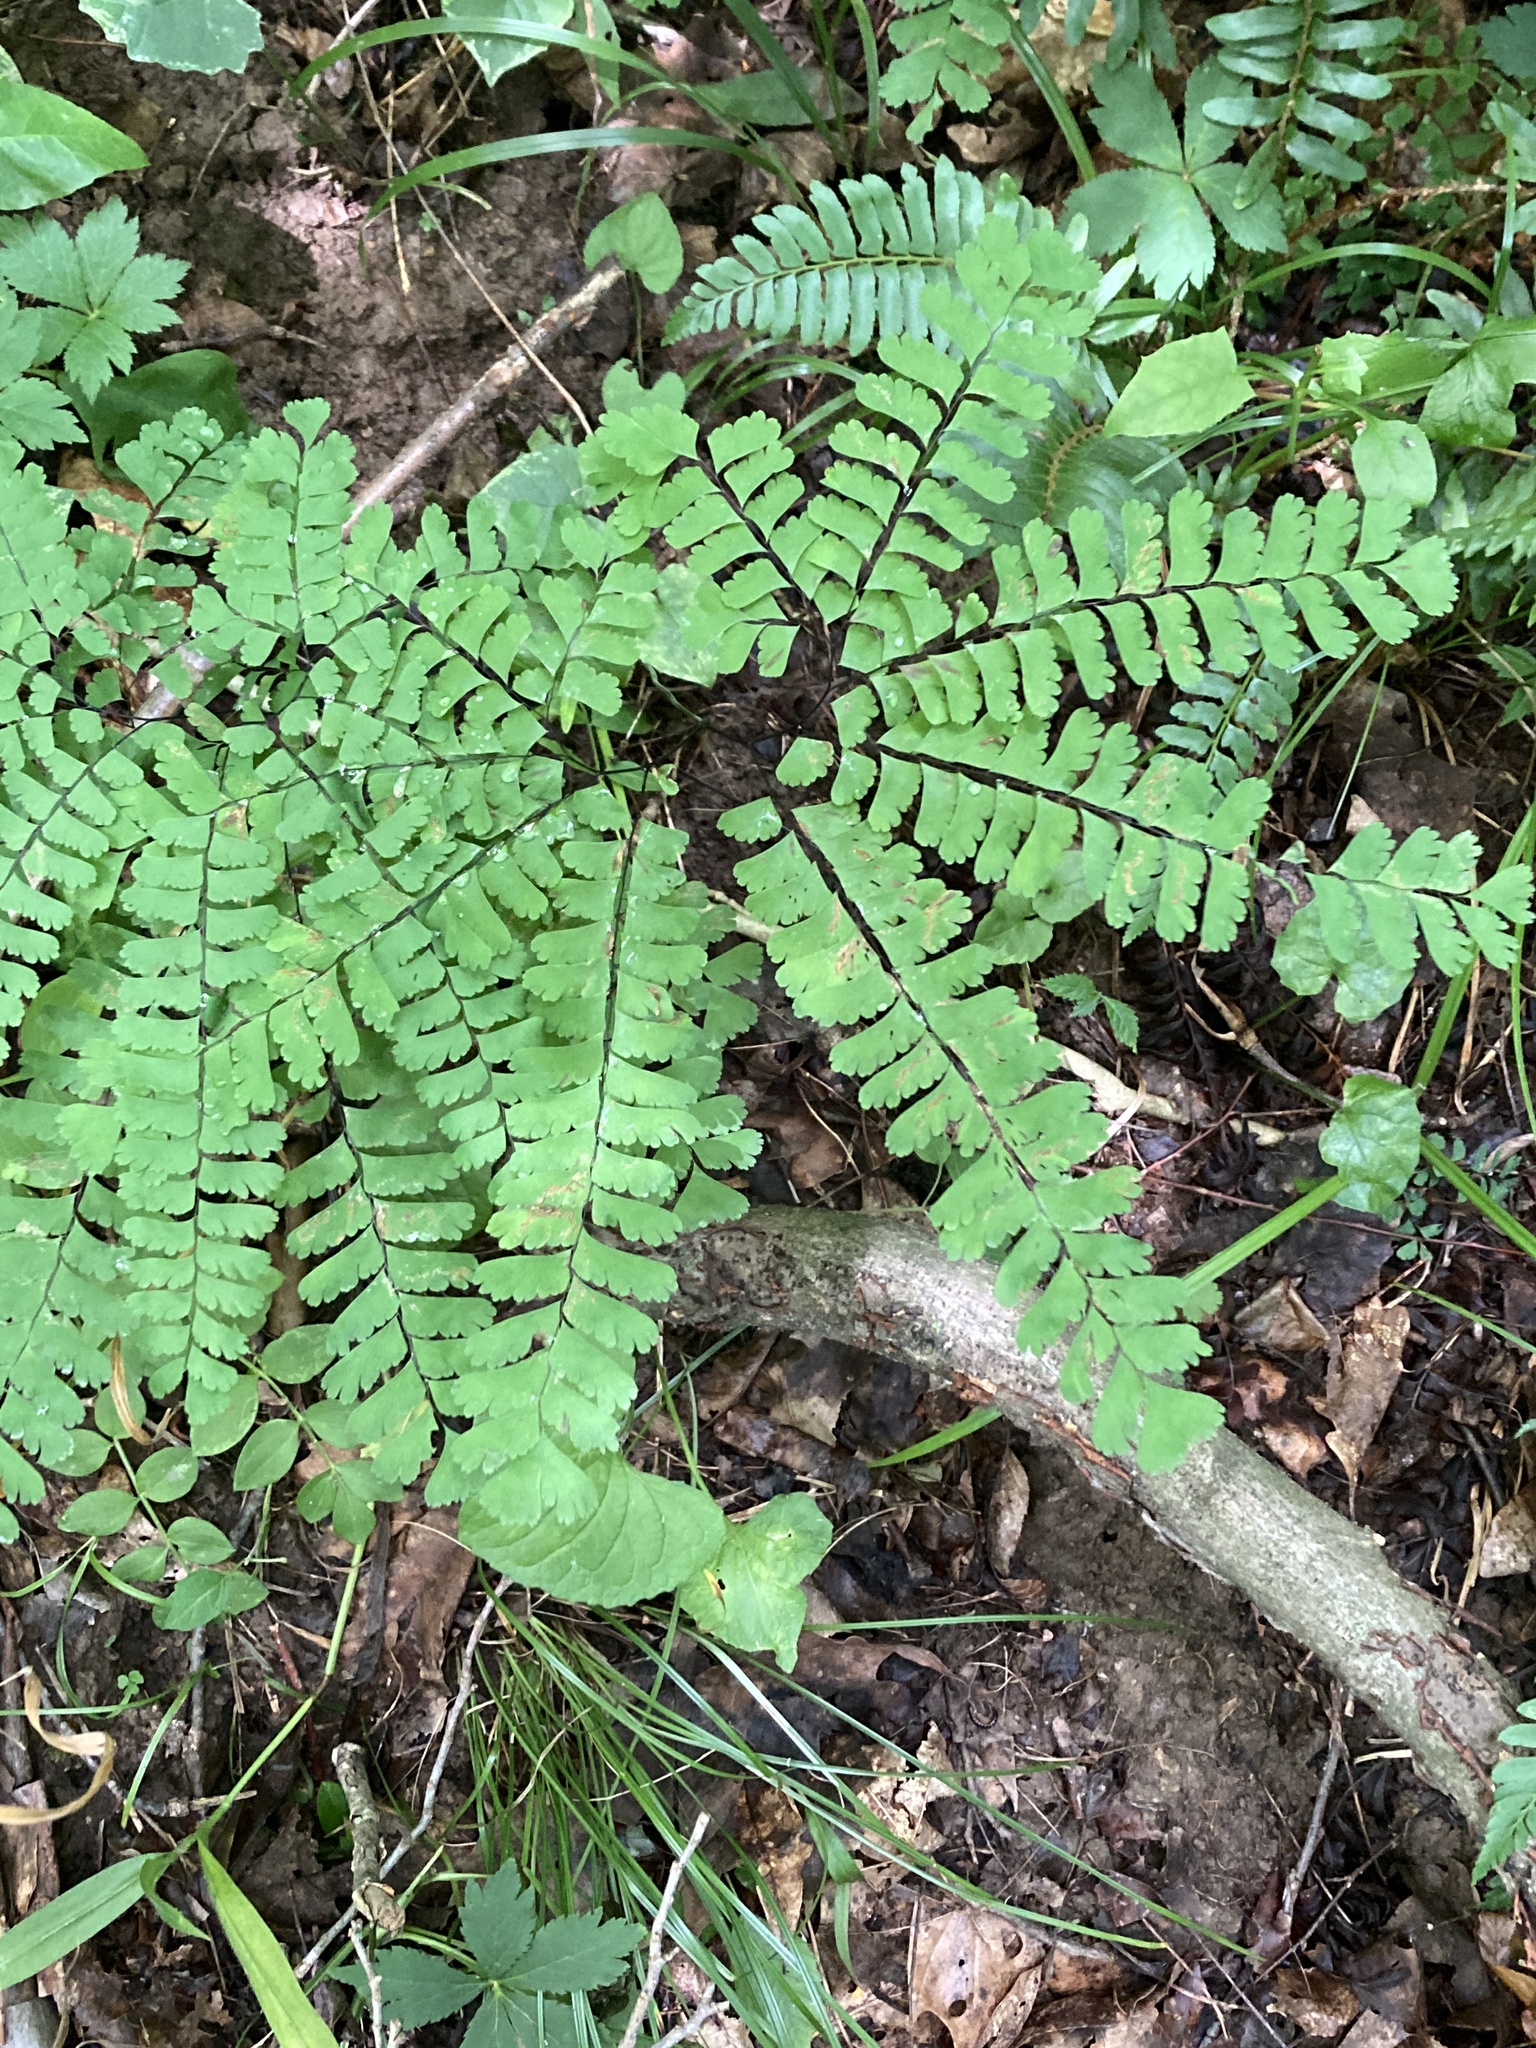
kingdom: Plantae
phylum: Tracheophyta
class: Polypodiopsida
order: Polypodiales
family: Pteridaceae
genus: Adiantum
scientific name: Adiantum pedatum
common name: Five-finger fern
